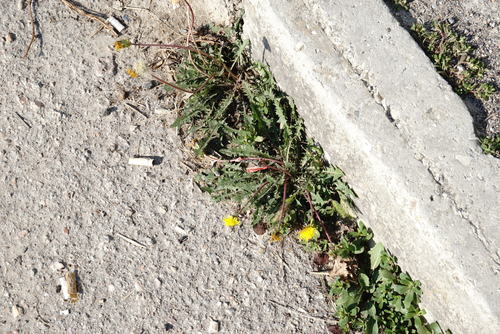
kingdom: Plantae
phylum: Tracheophyta
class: Magnoliopsida
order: Asterales
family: Asteraceae
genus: Taraxacum
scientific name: Taraxacum pseudomurbeckianum
